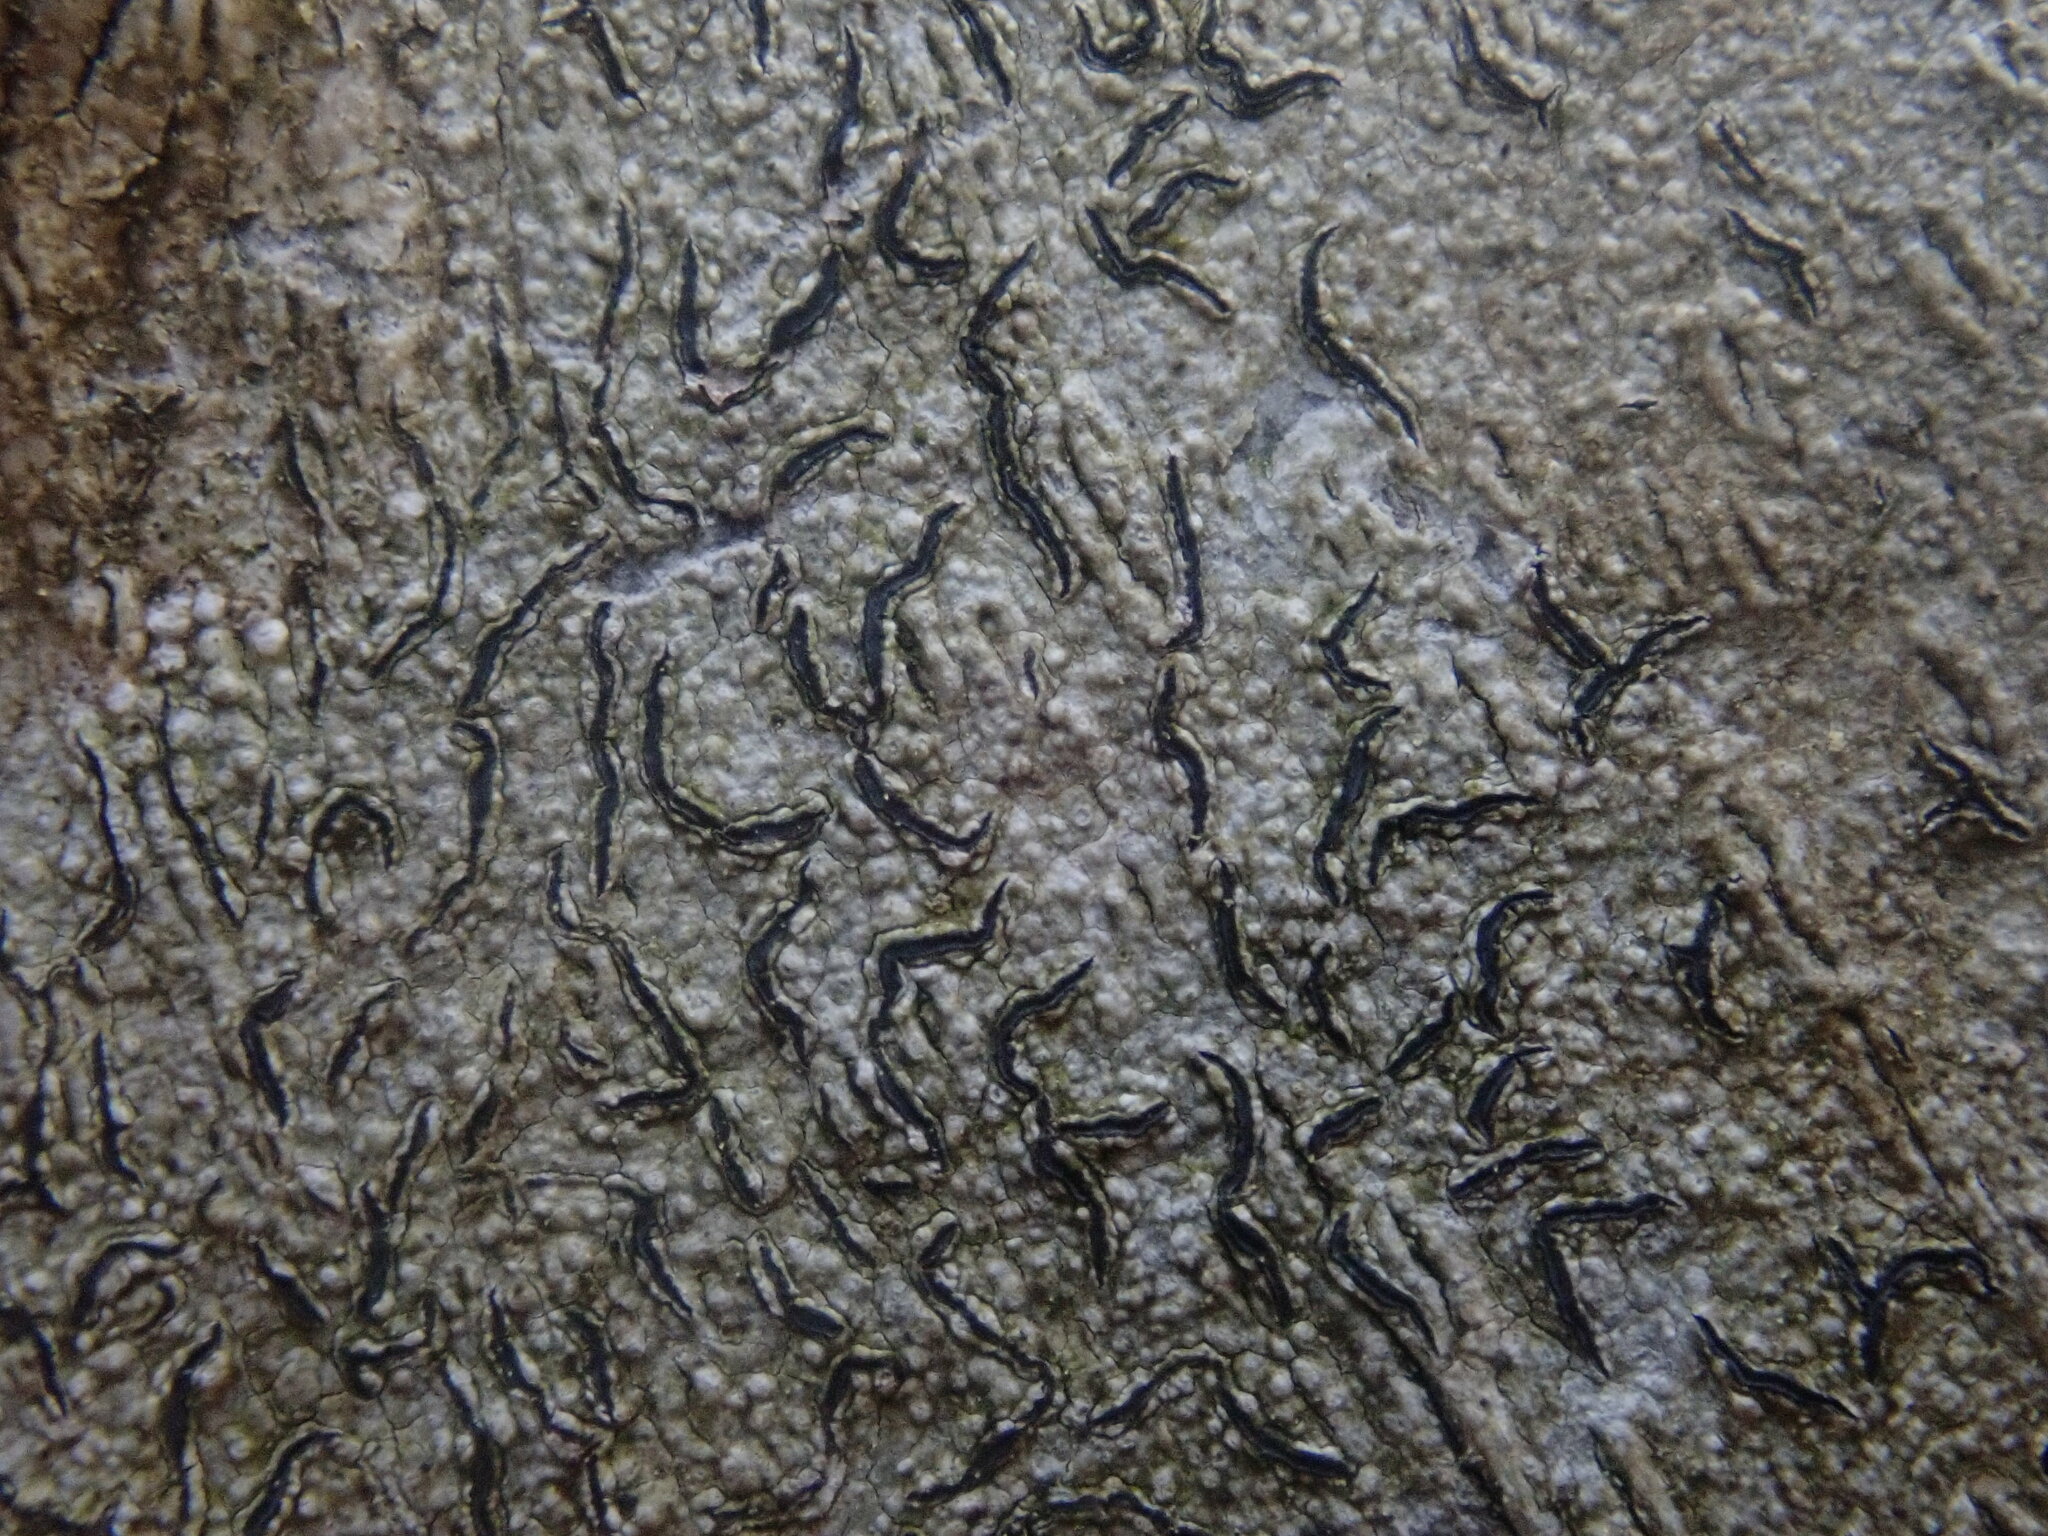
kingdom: Fungi
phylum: Ascomycota
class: Lecanoromycetes
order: Ostropales
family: Graphidaceae
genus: Graphis
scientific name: Graphis scripta
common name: Script lichen
